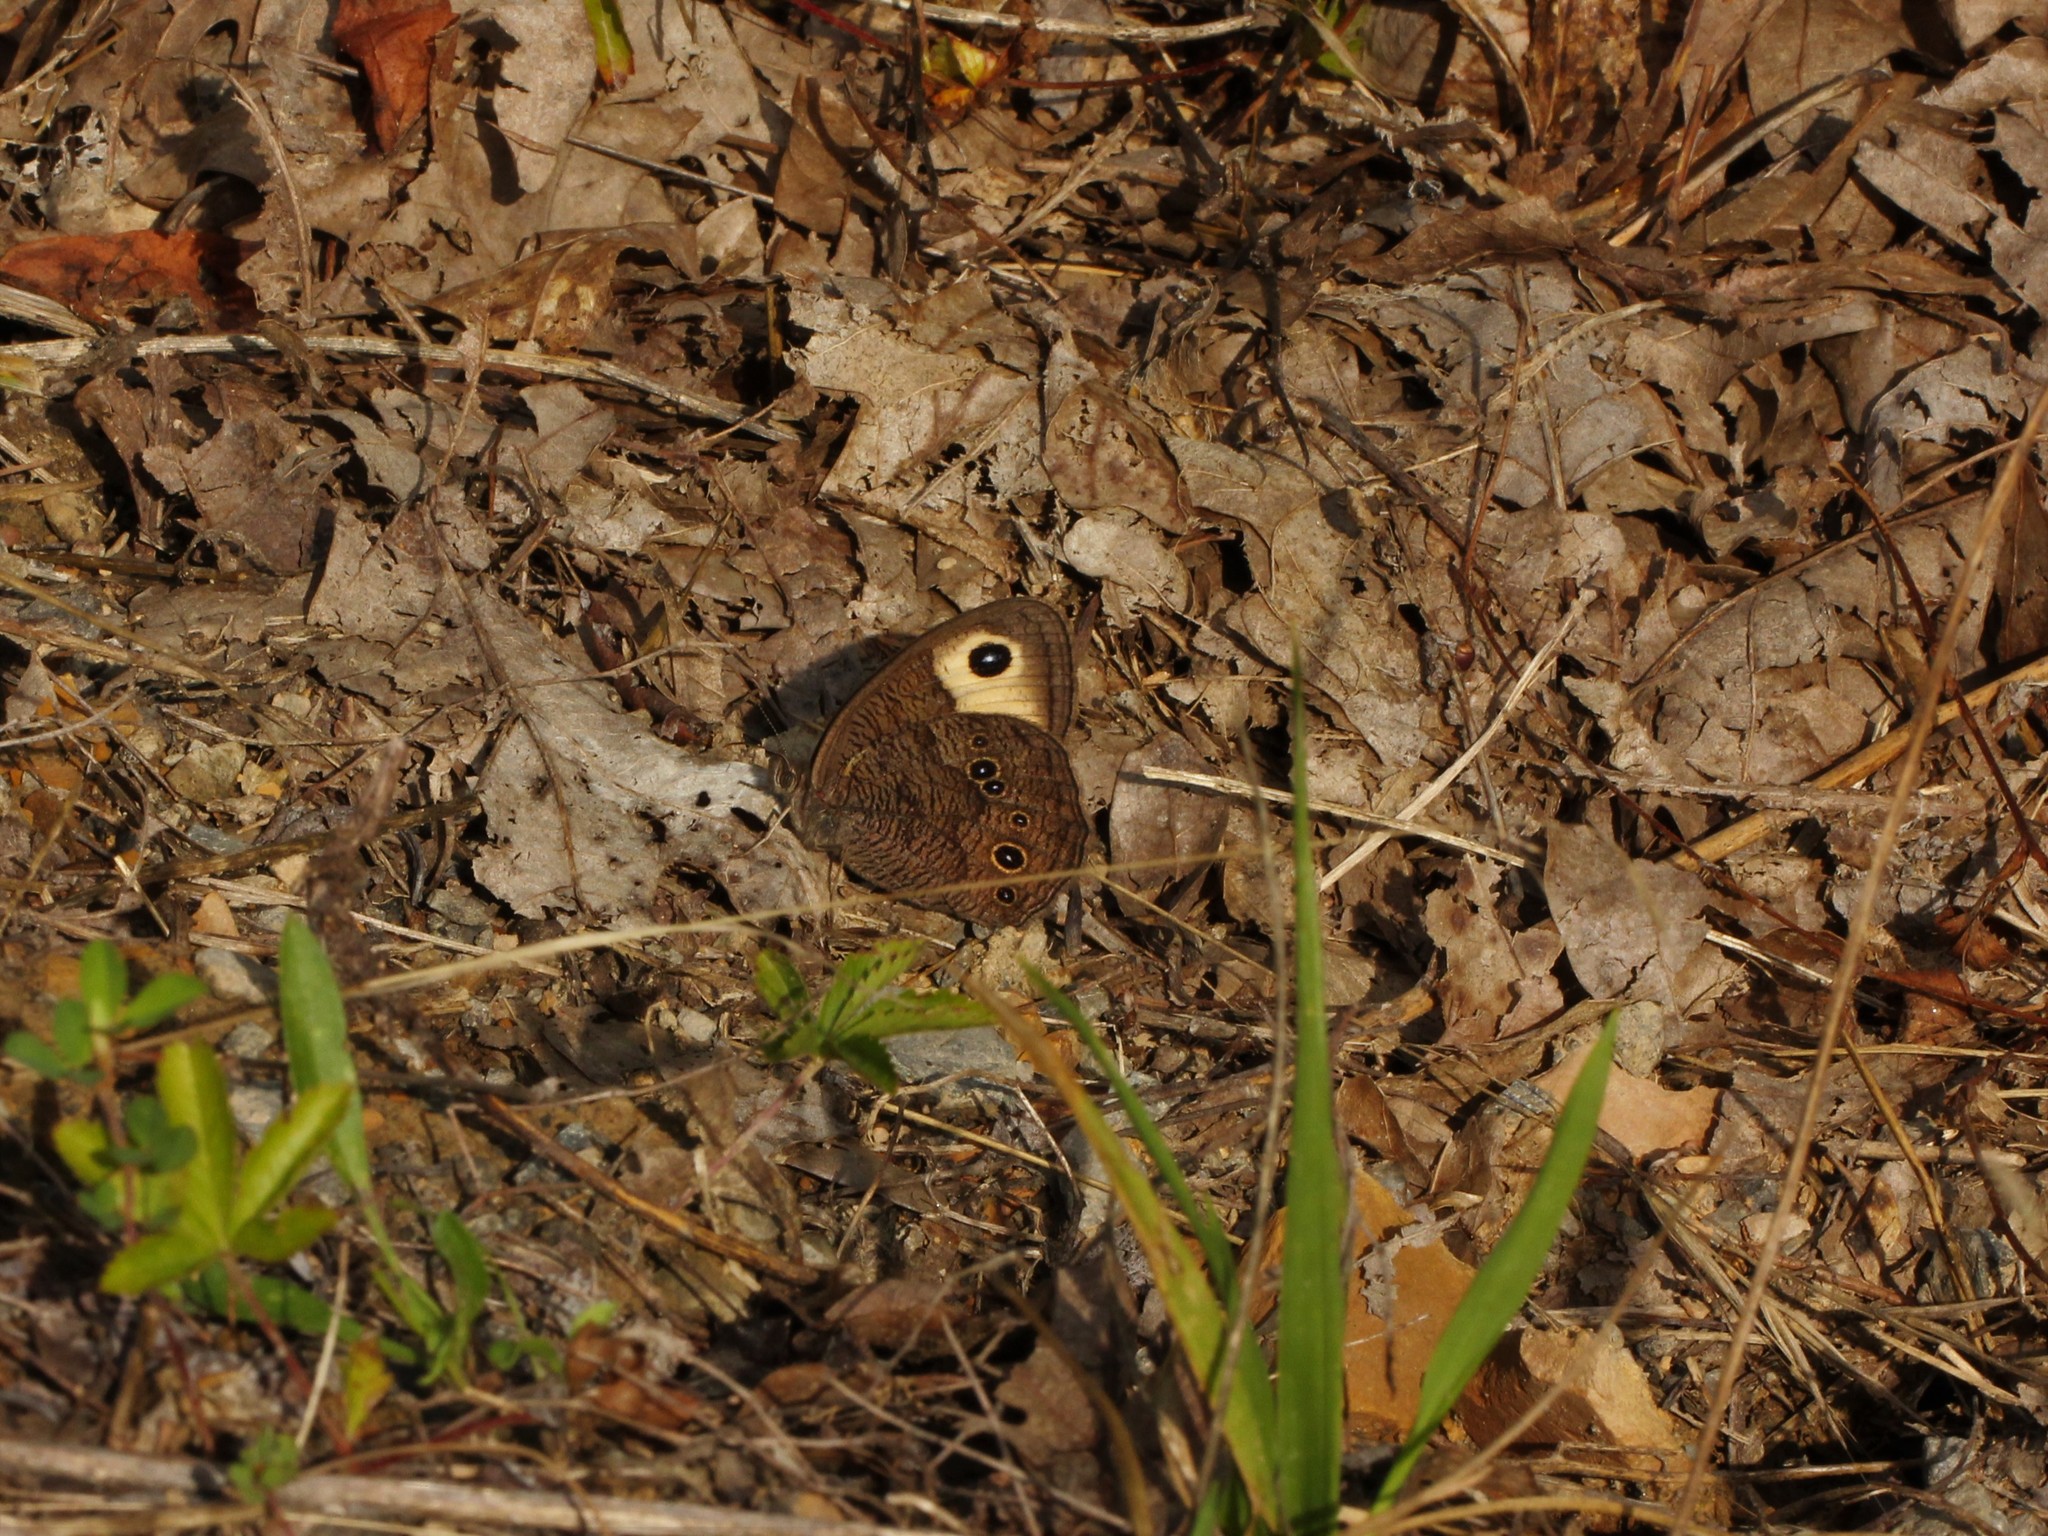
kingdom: Animalia
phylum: Arthropoda
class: Insecta
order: Lepidoptera
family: Nymphalidae
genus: Cercyonis
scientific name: Cercyonis pegala
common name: Common wood-nymph
